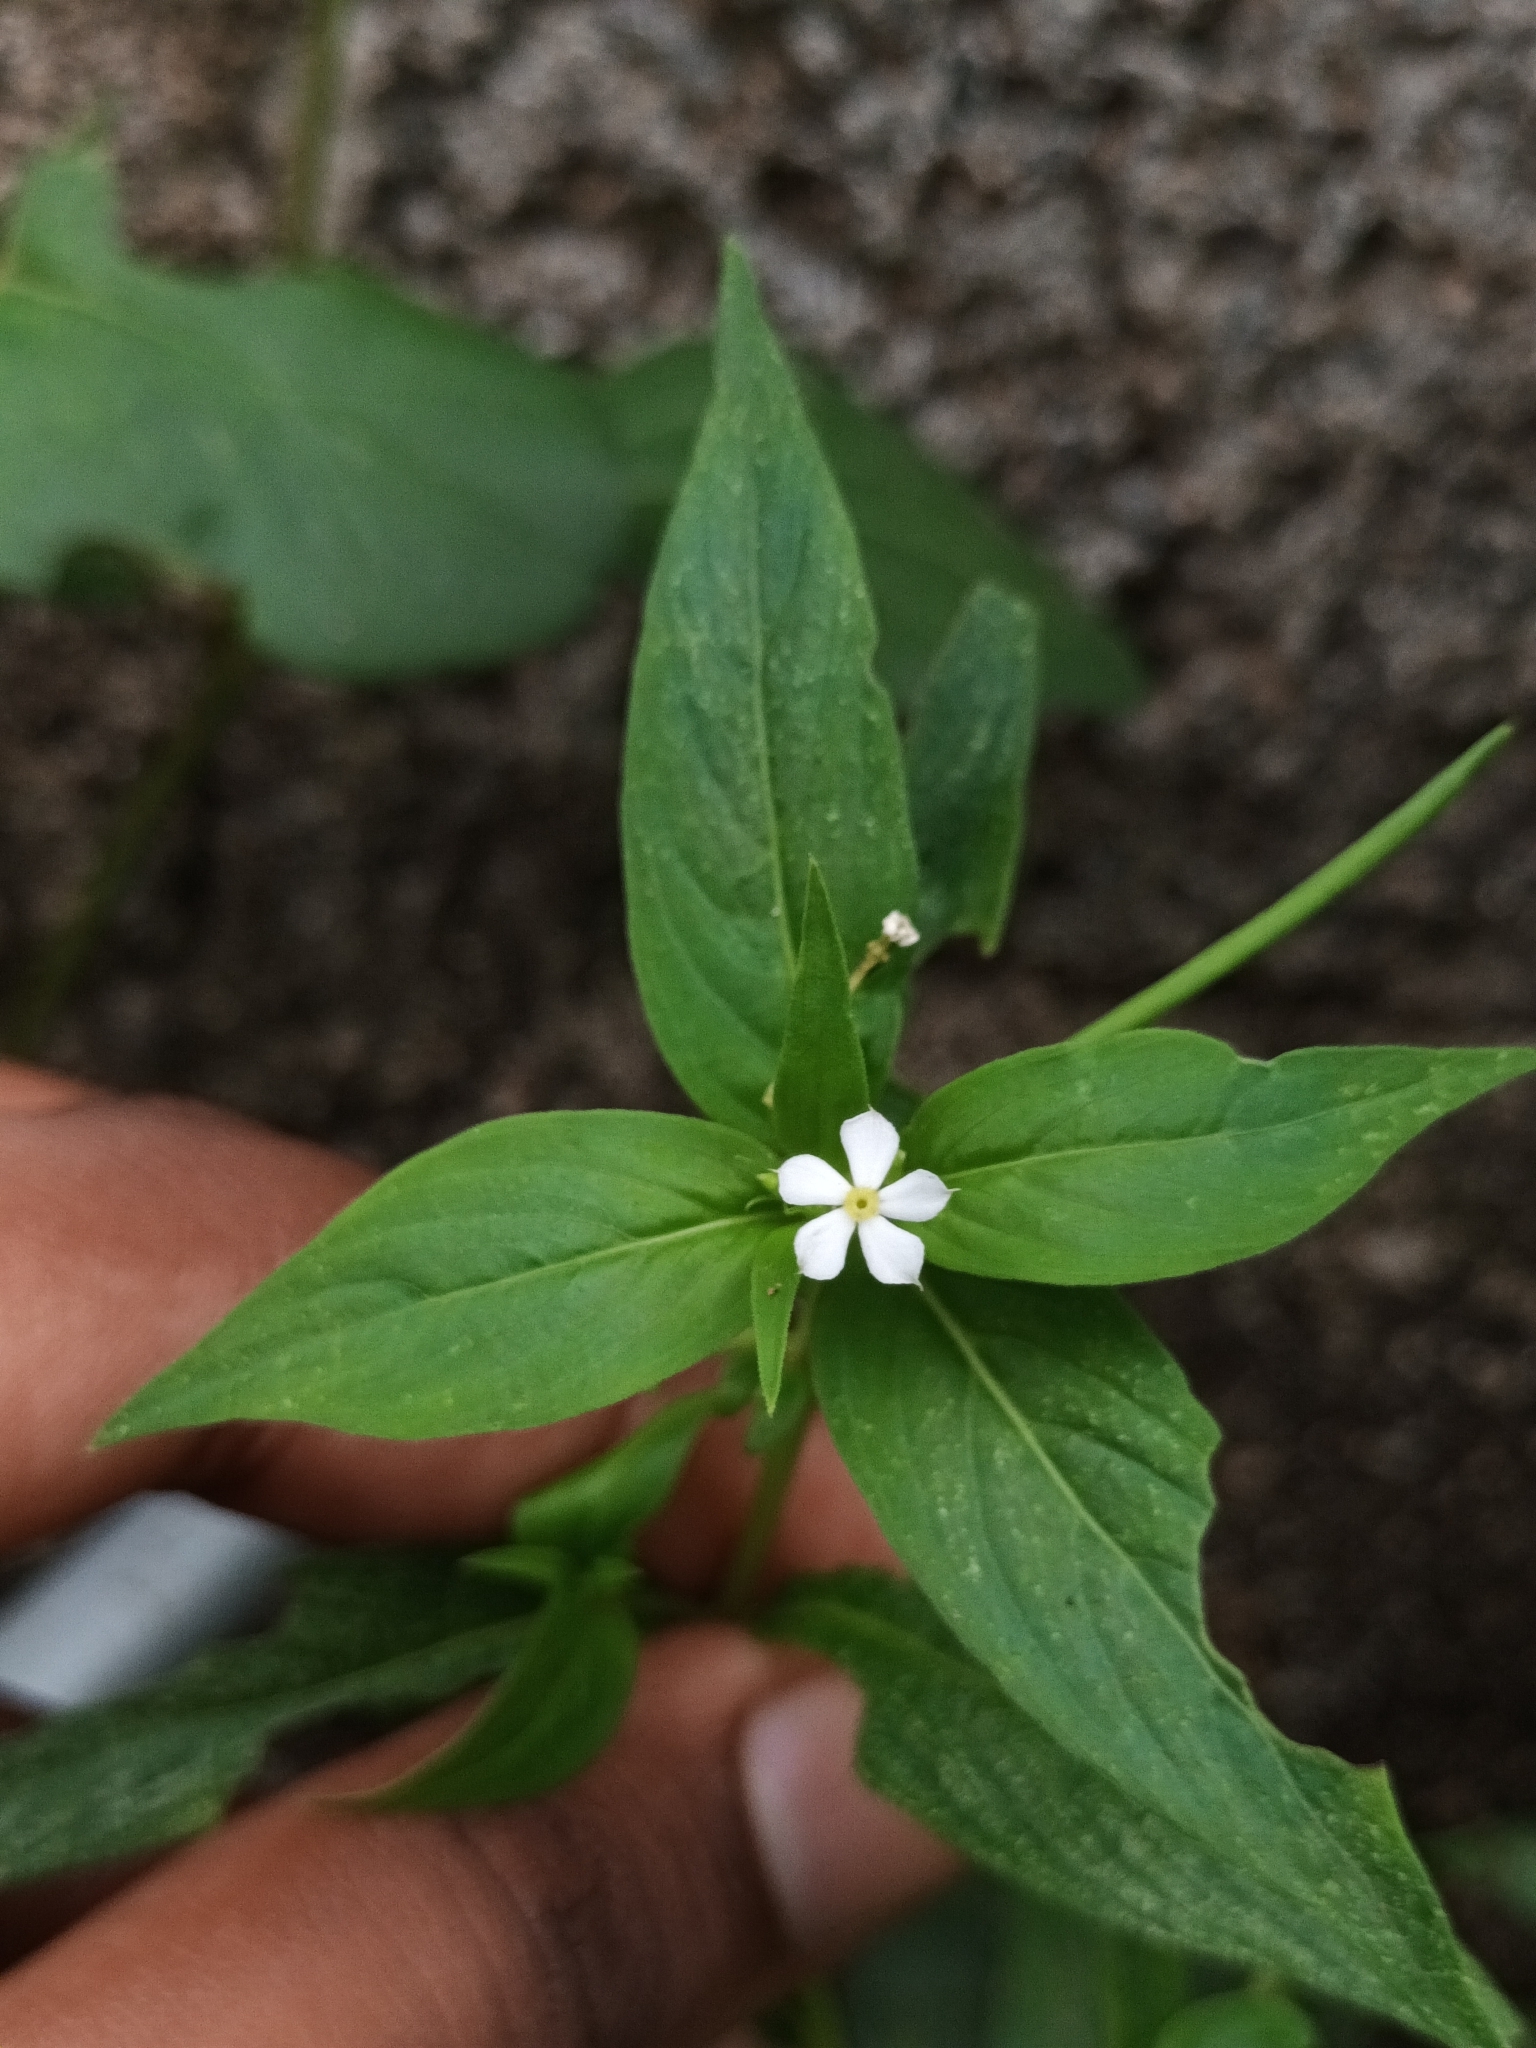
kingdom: Plantae
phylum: Tracheophyta
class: Magnoliopsida
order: Gentianales
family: Apocynaceae
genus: Catharanthus
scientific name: Catharanthus pusillus
